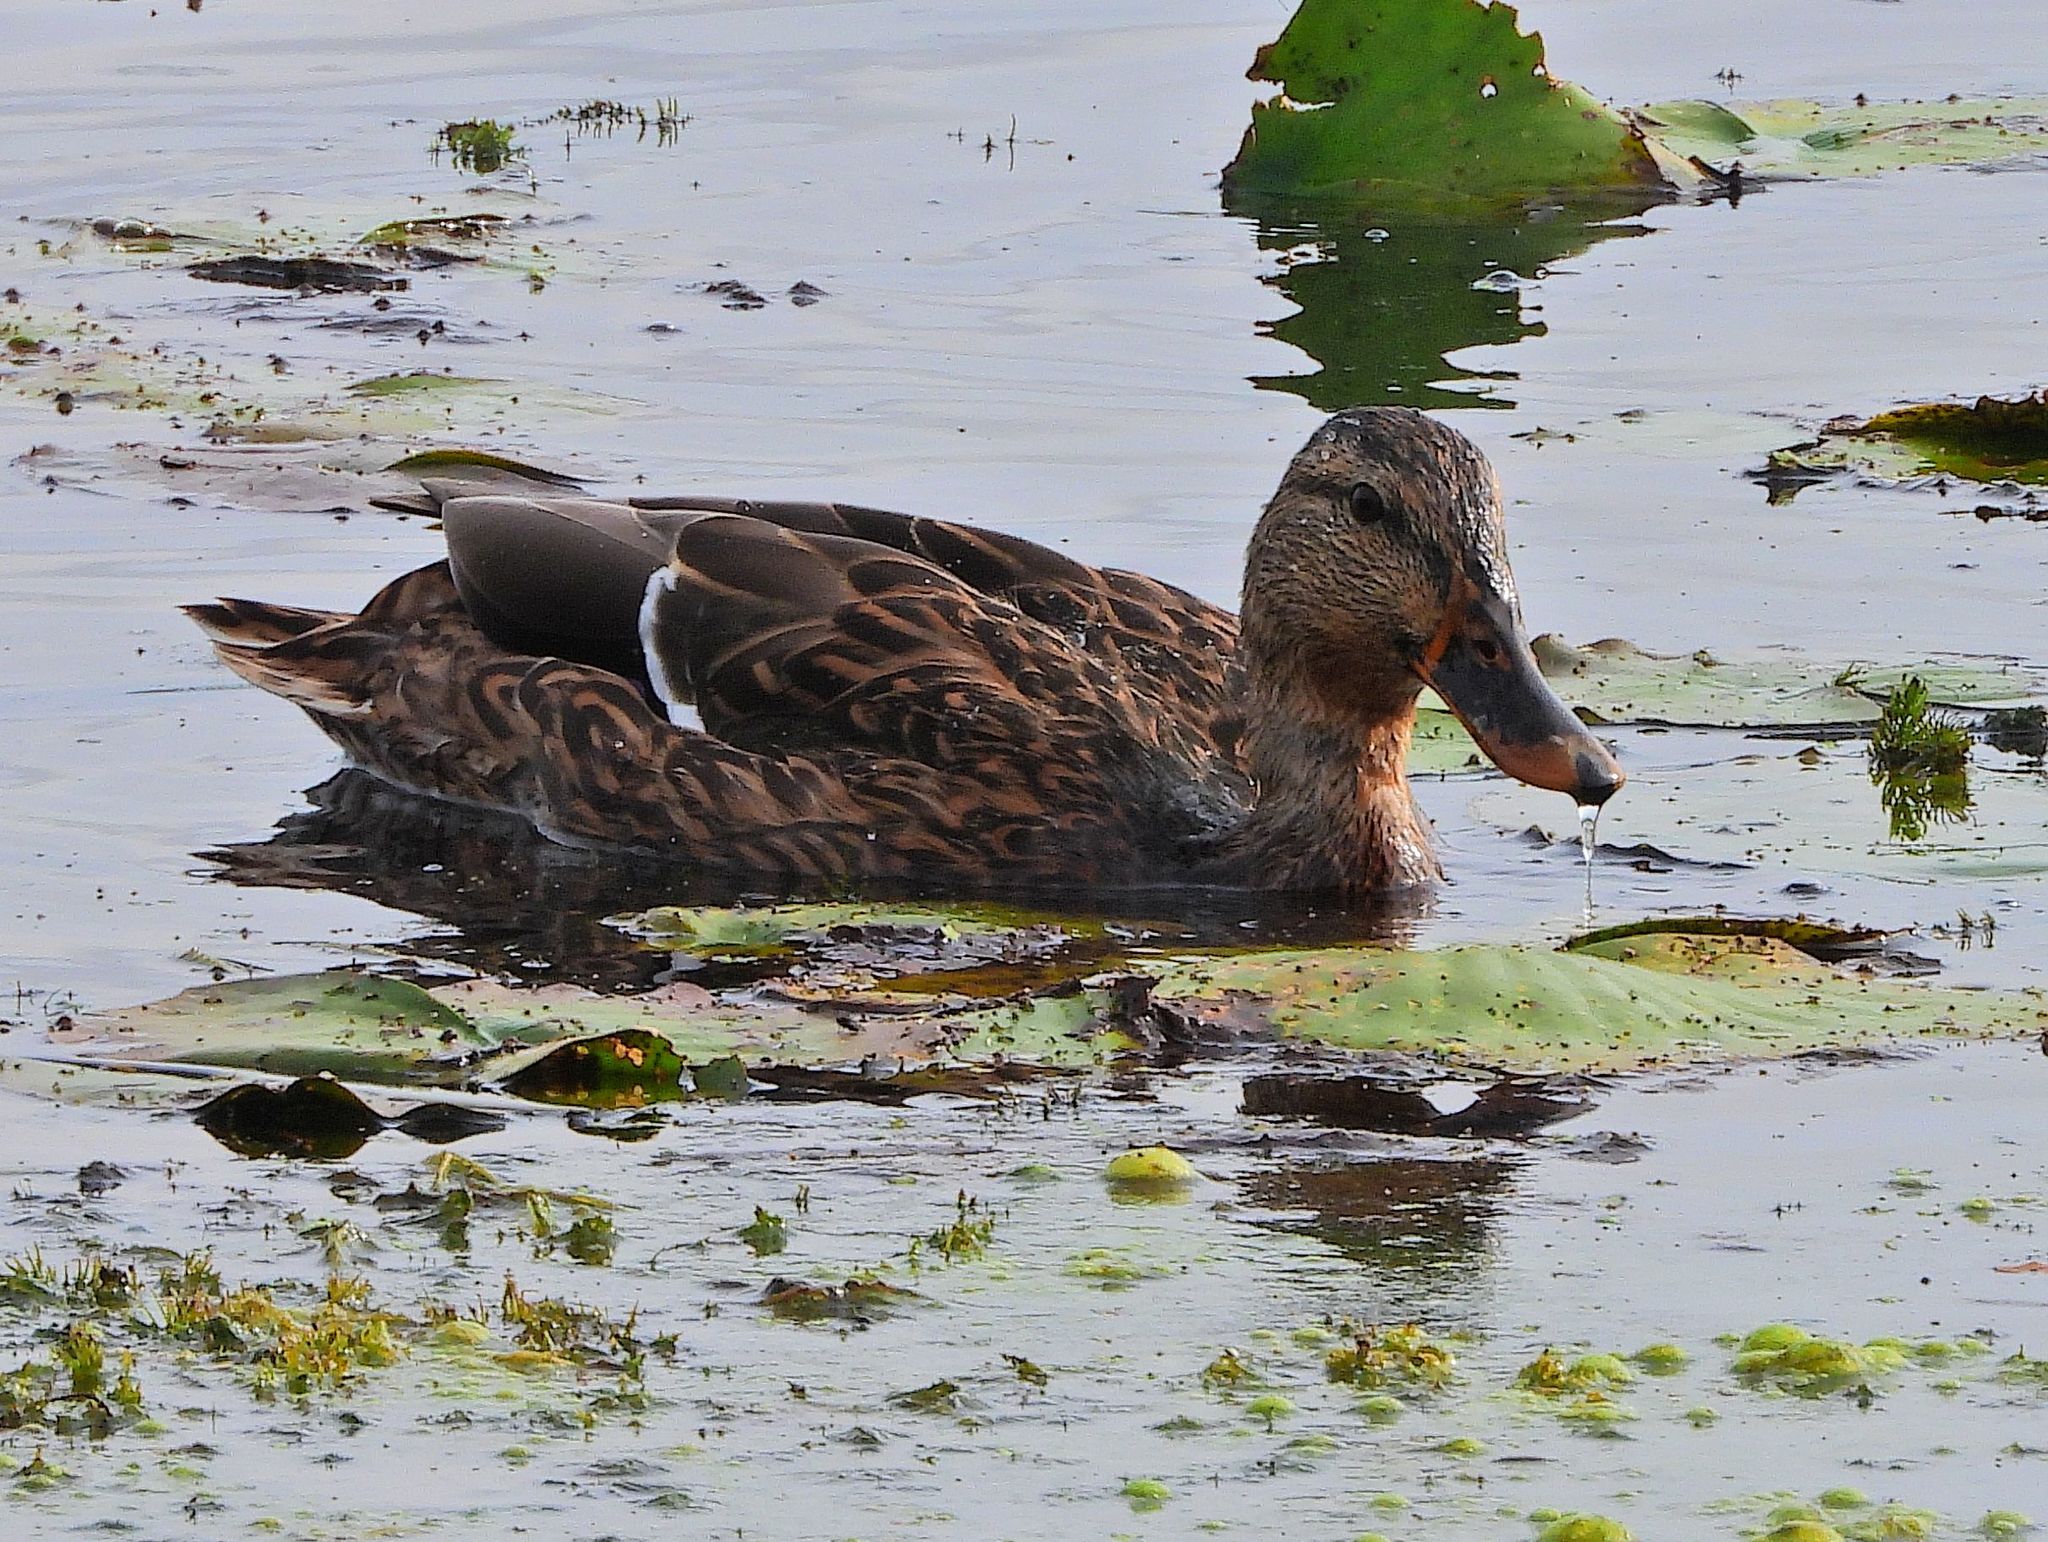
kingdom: Animalia
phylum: Chordata
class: Aves
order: Anseriformes
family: Anatidae
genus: Anas
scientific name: Anas platyrhynchos
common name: Mallard
